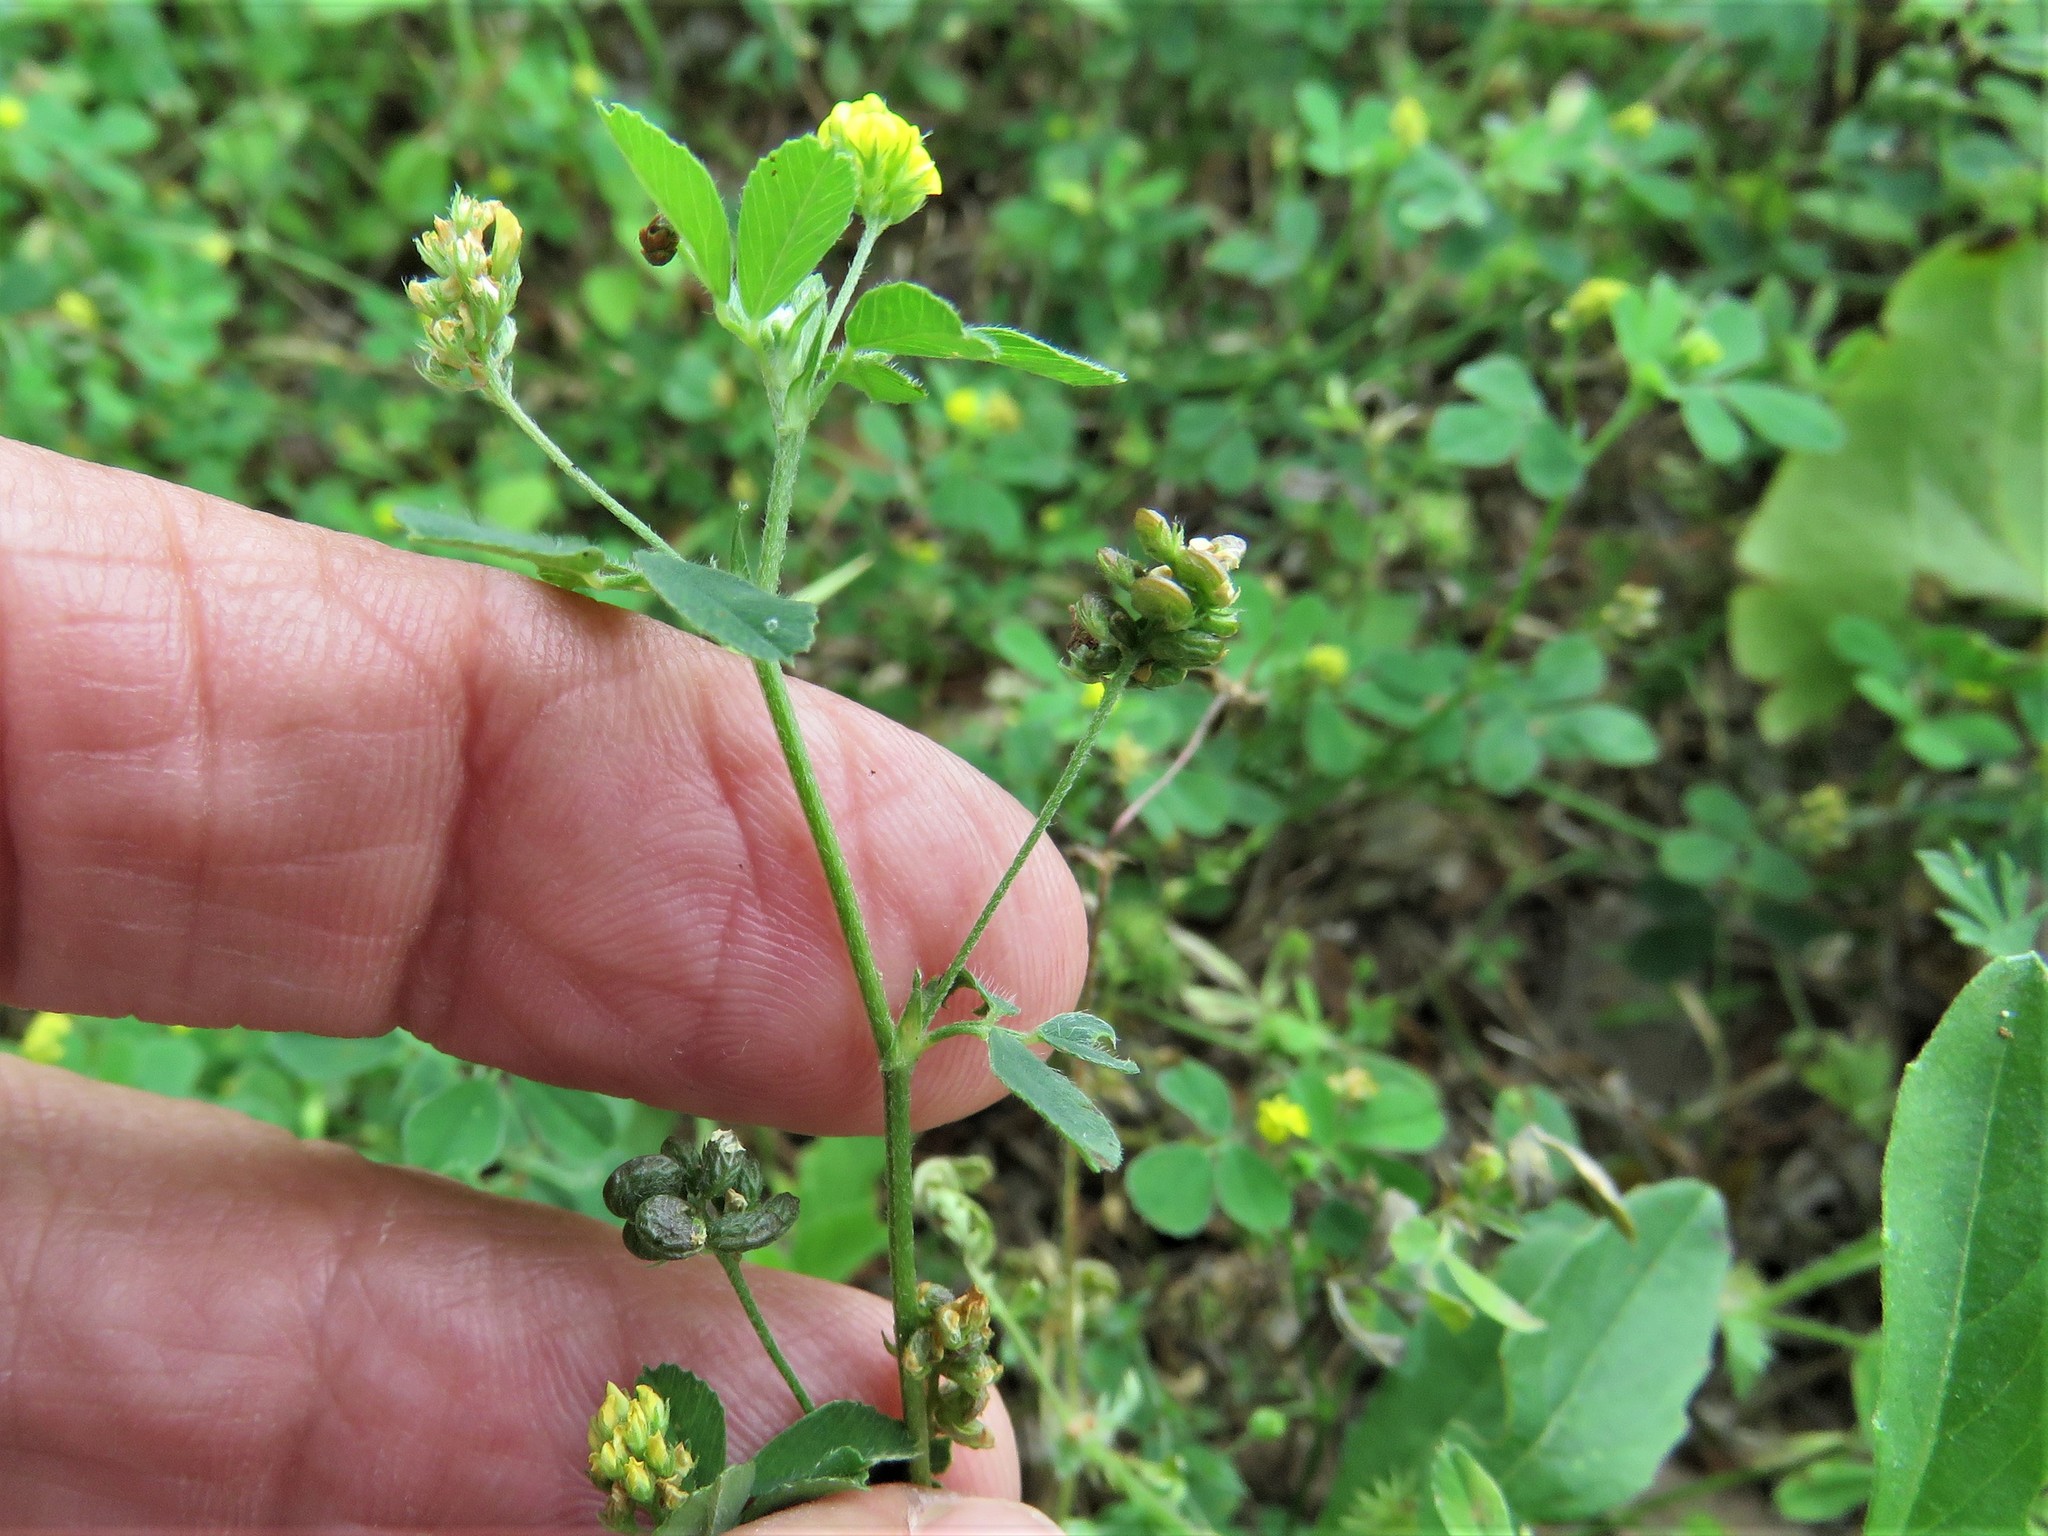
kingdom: Plantae
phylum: Tracheophyta
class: Magnoliopsida
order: Fabales
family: Fabaceae
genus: Medicago
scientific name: Medicago lupulina
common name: Black medick
